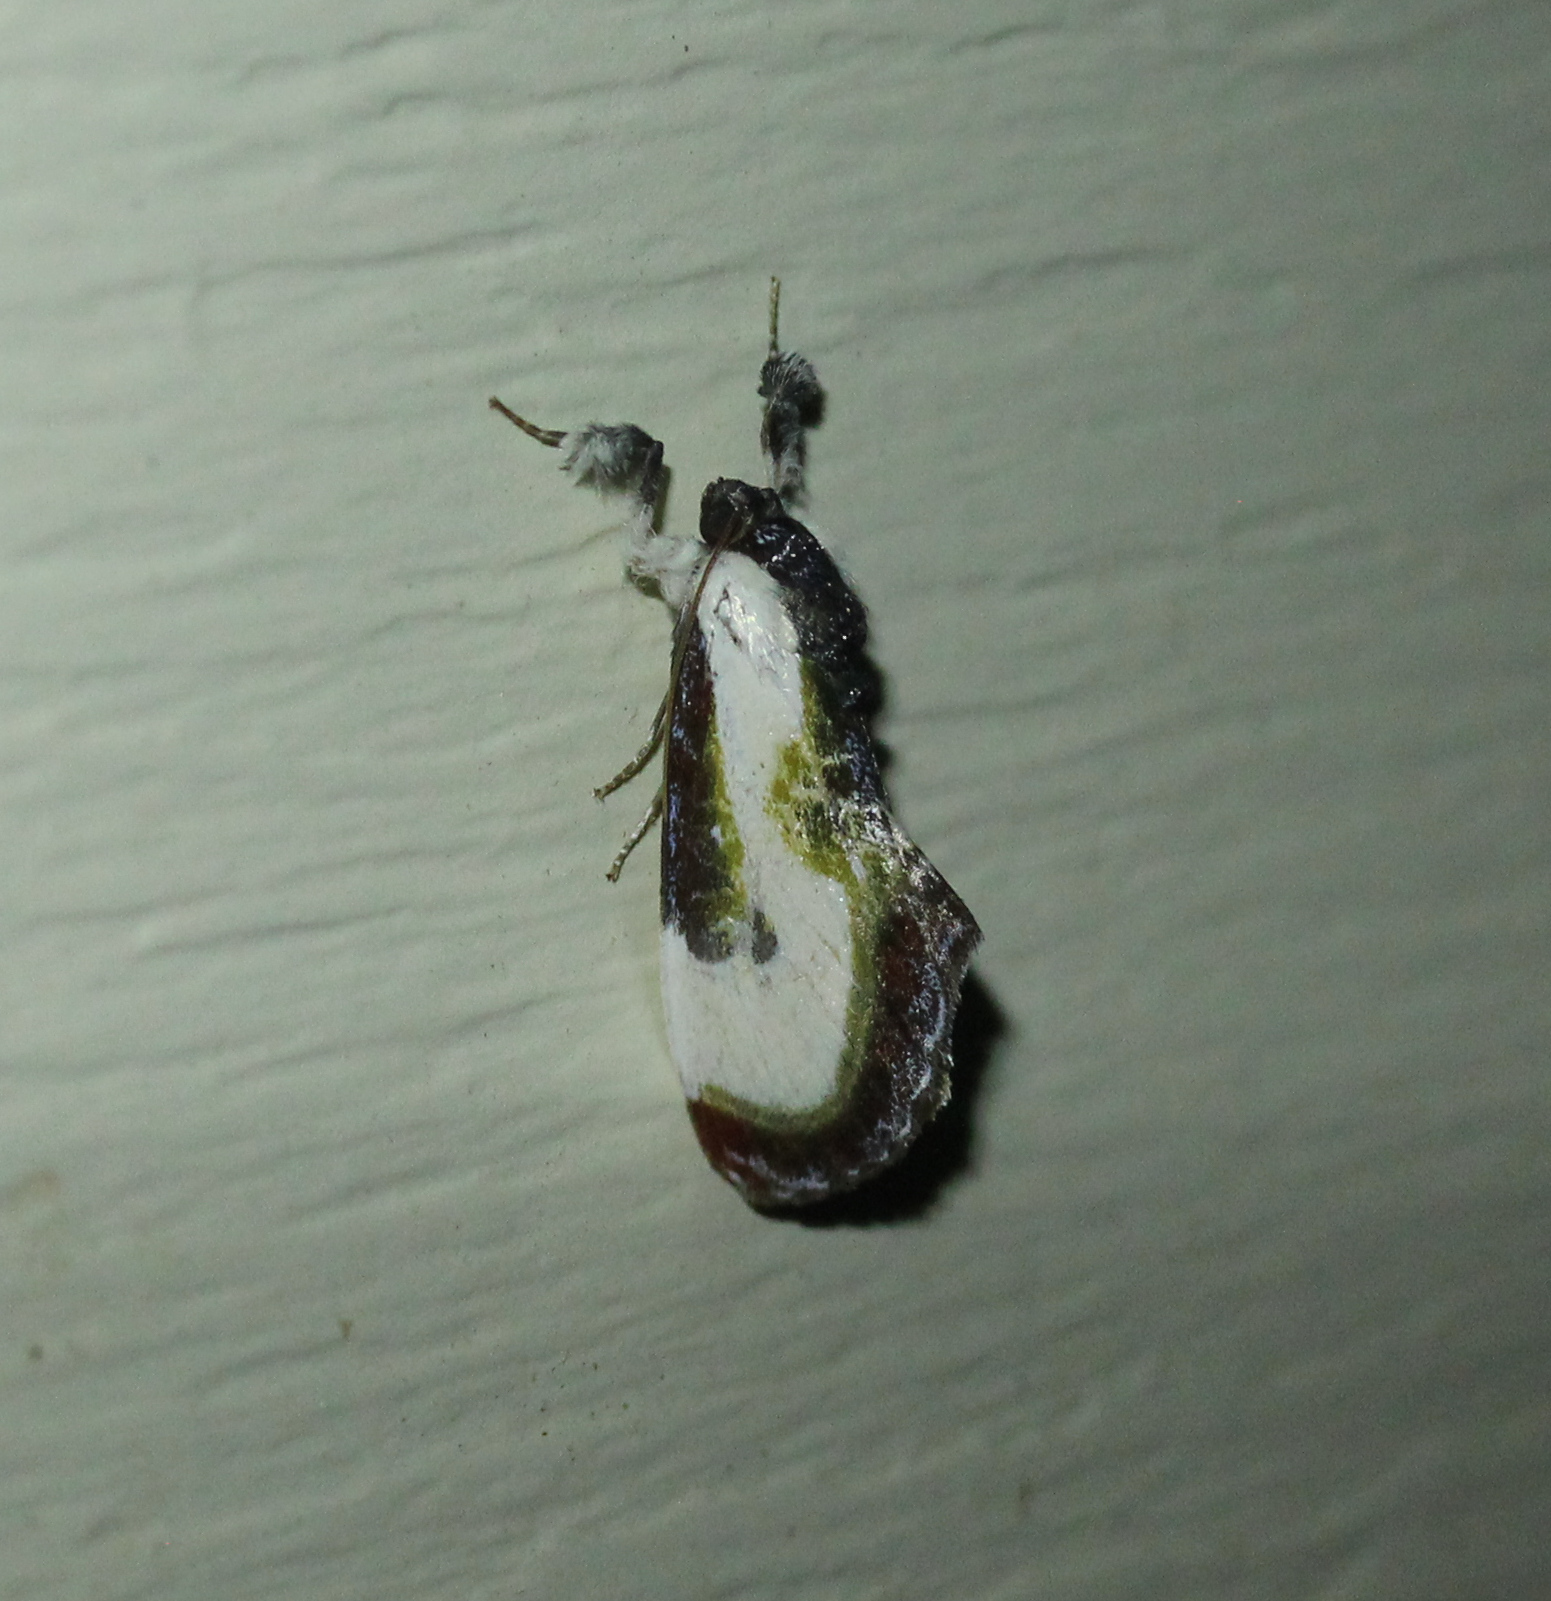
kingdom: Animalia
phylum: Arthropoda
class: Insecta
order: Lepidoptera
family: Noctuidae
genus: Eudryas
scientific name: Eudryas grata
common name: Beautiful wood-nymph
